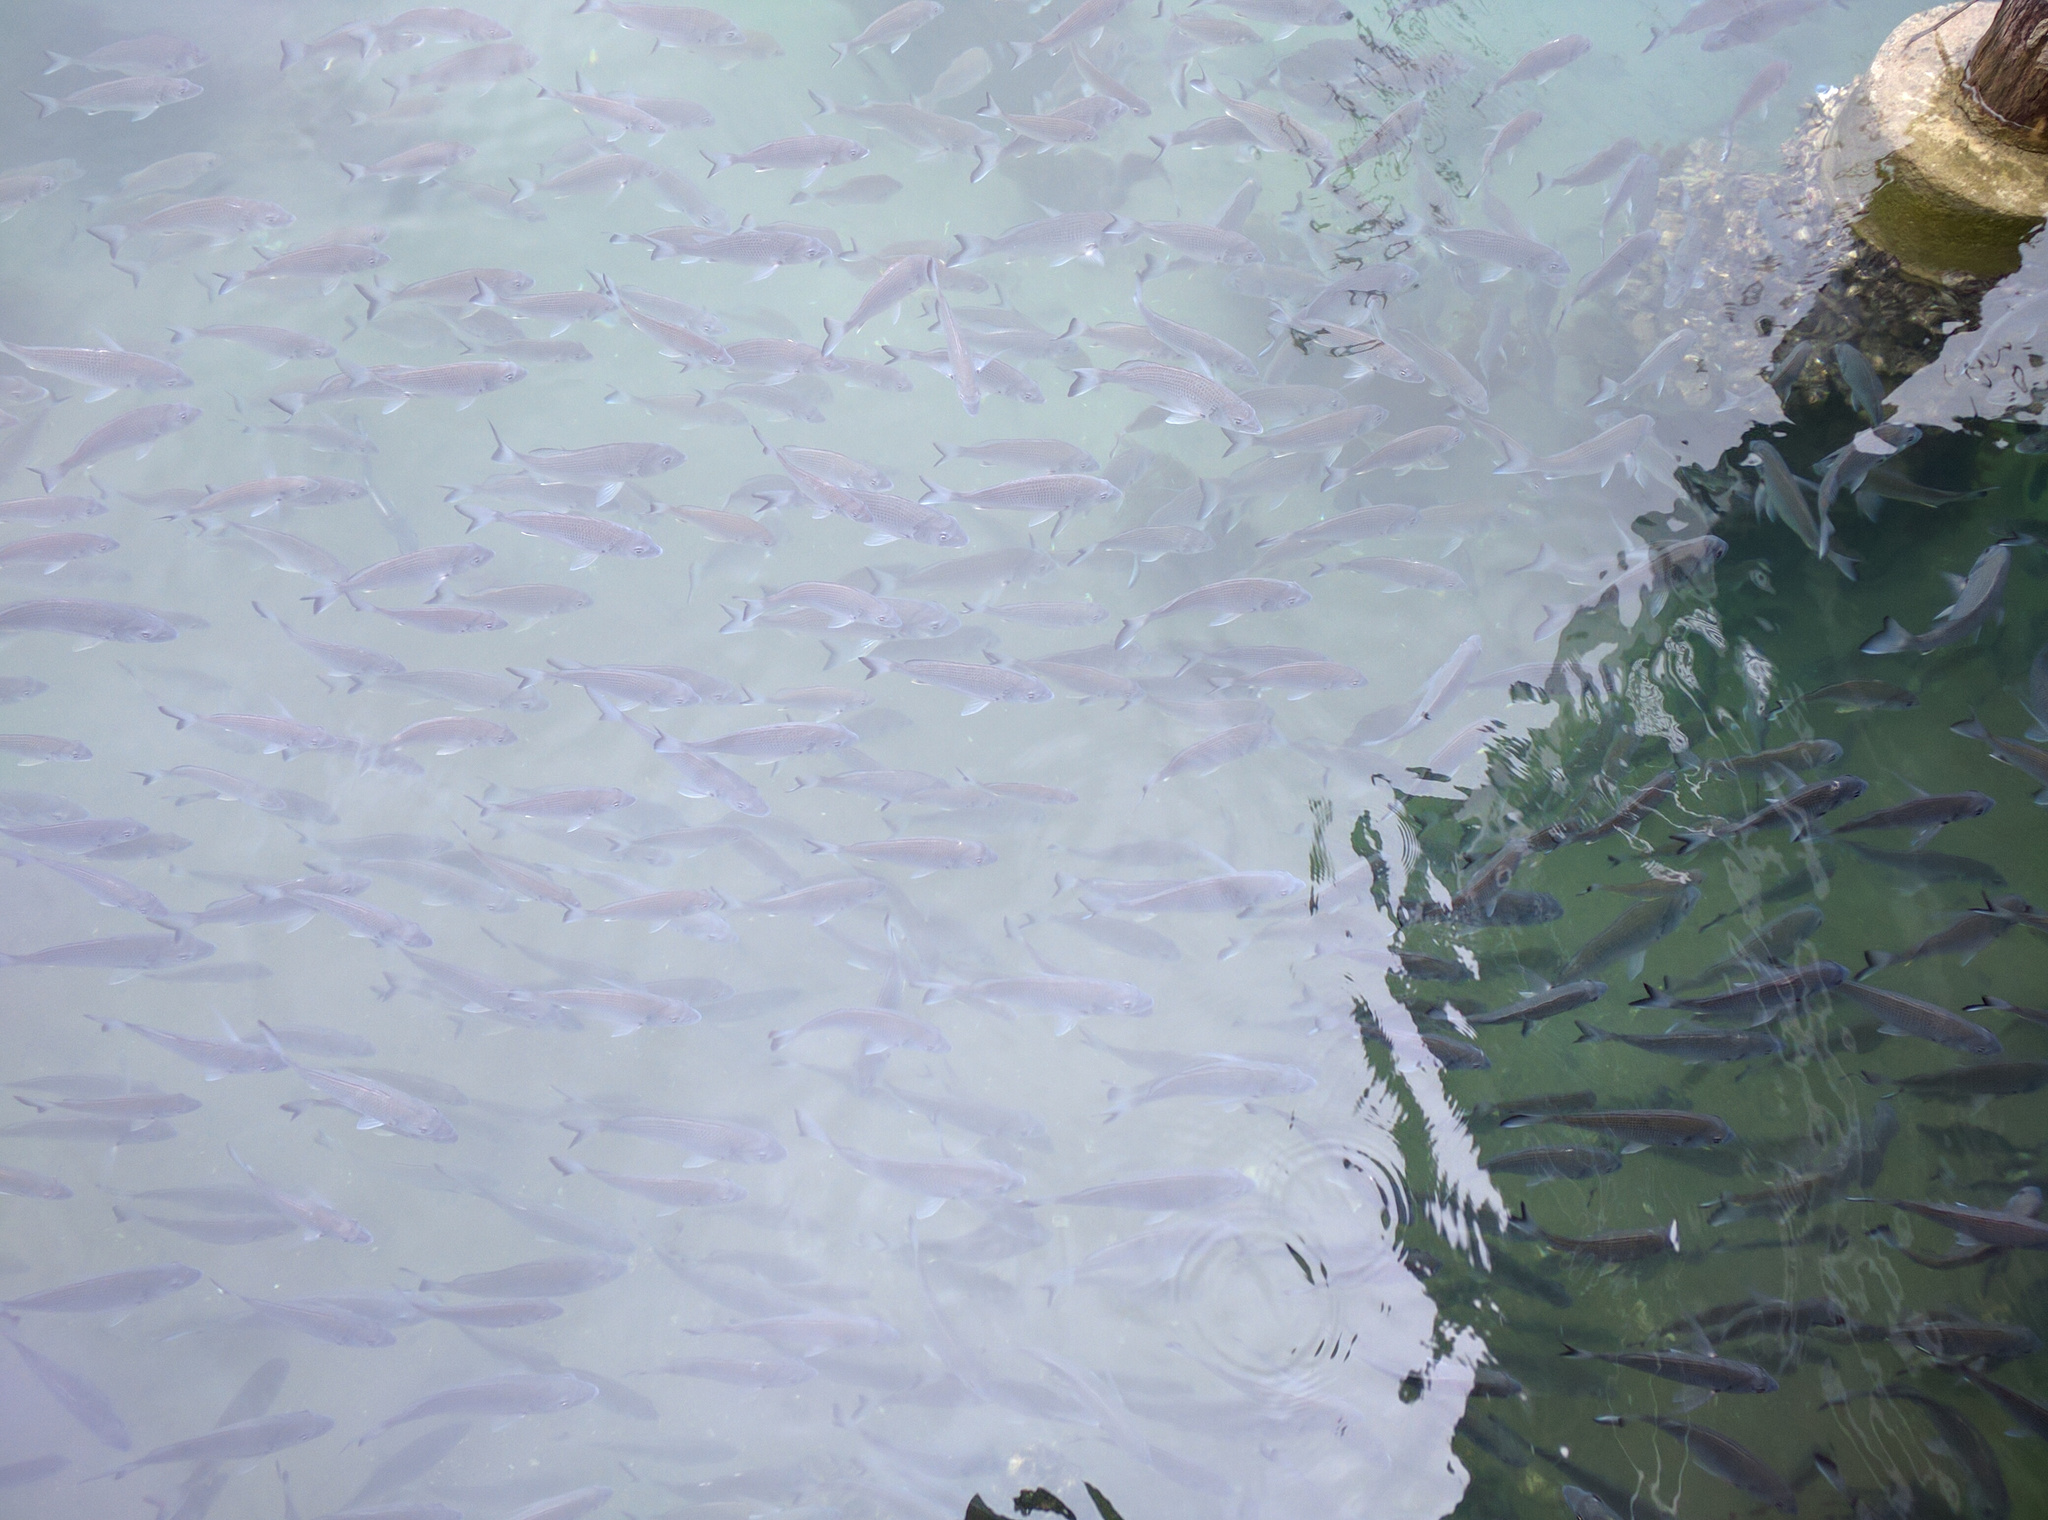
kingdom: Animalia
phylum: Chordata
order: Perciformes
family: Sparidae
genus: Acanthopagrus
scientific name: Acanthopagrus australis
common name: Surf bream
